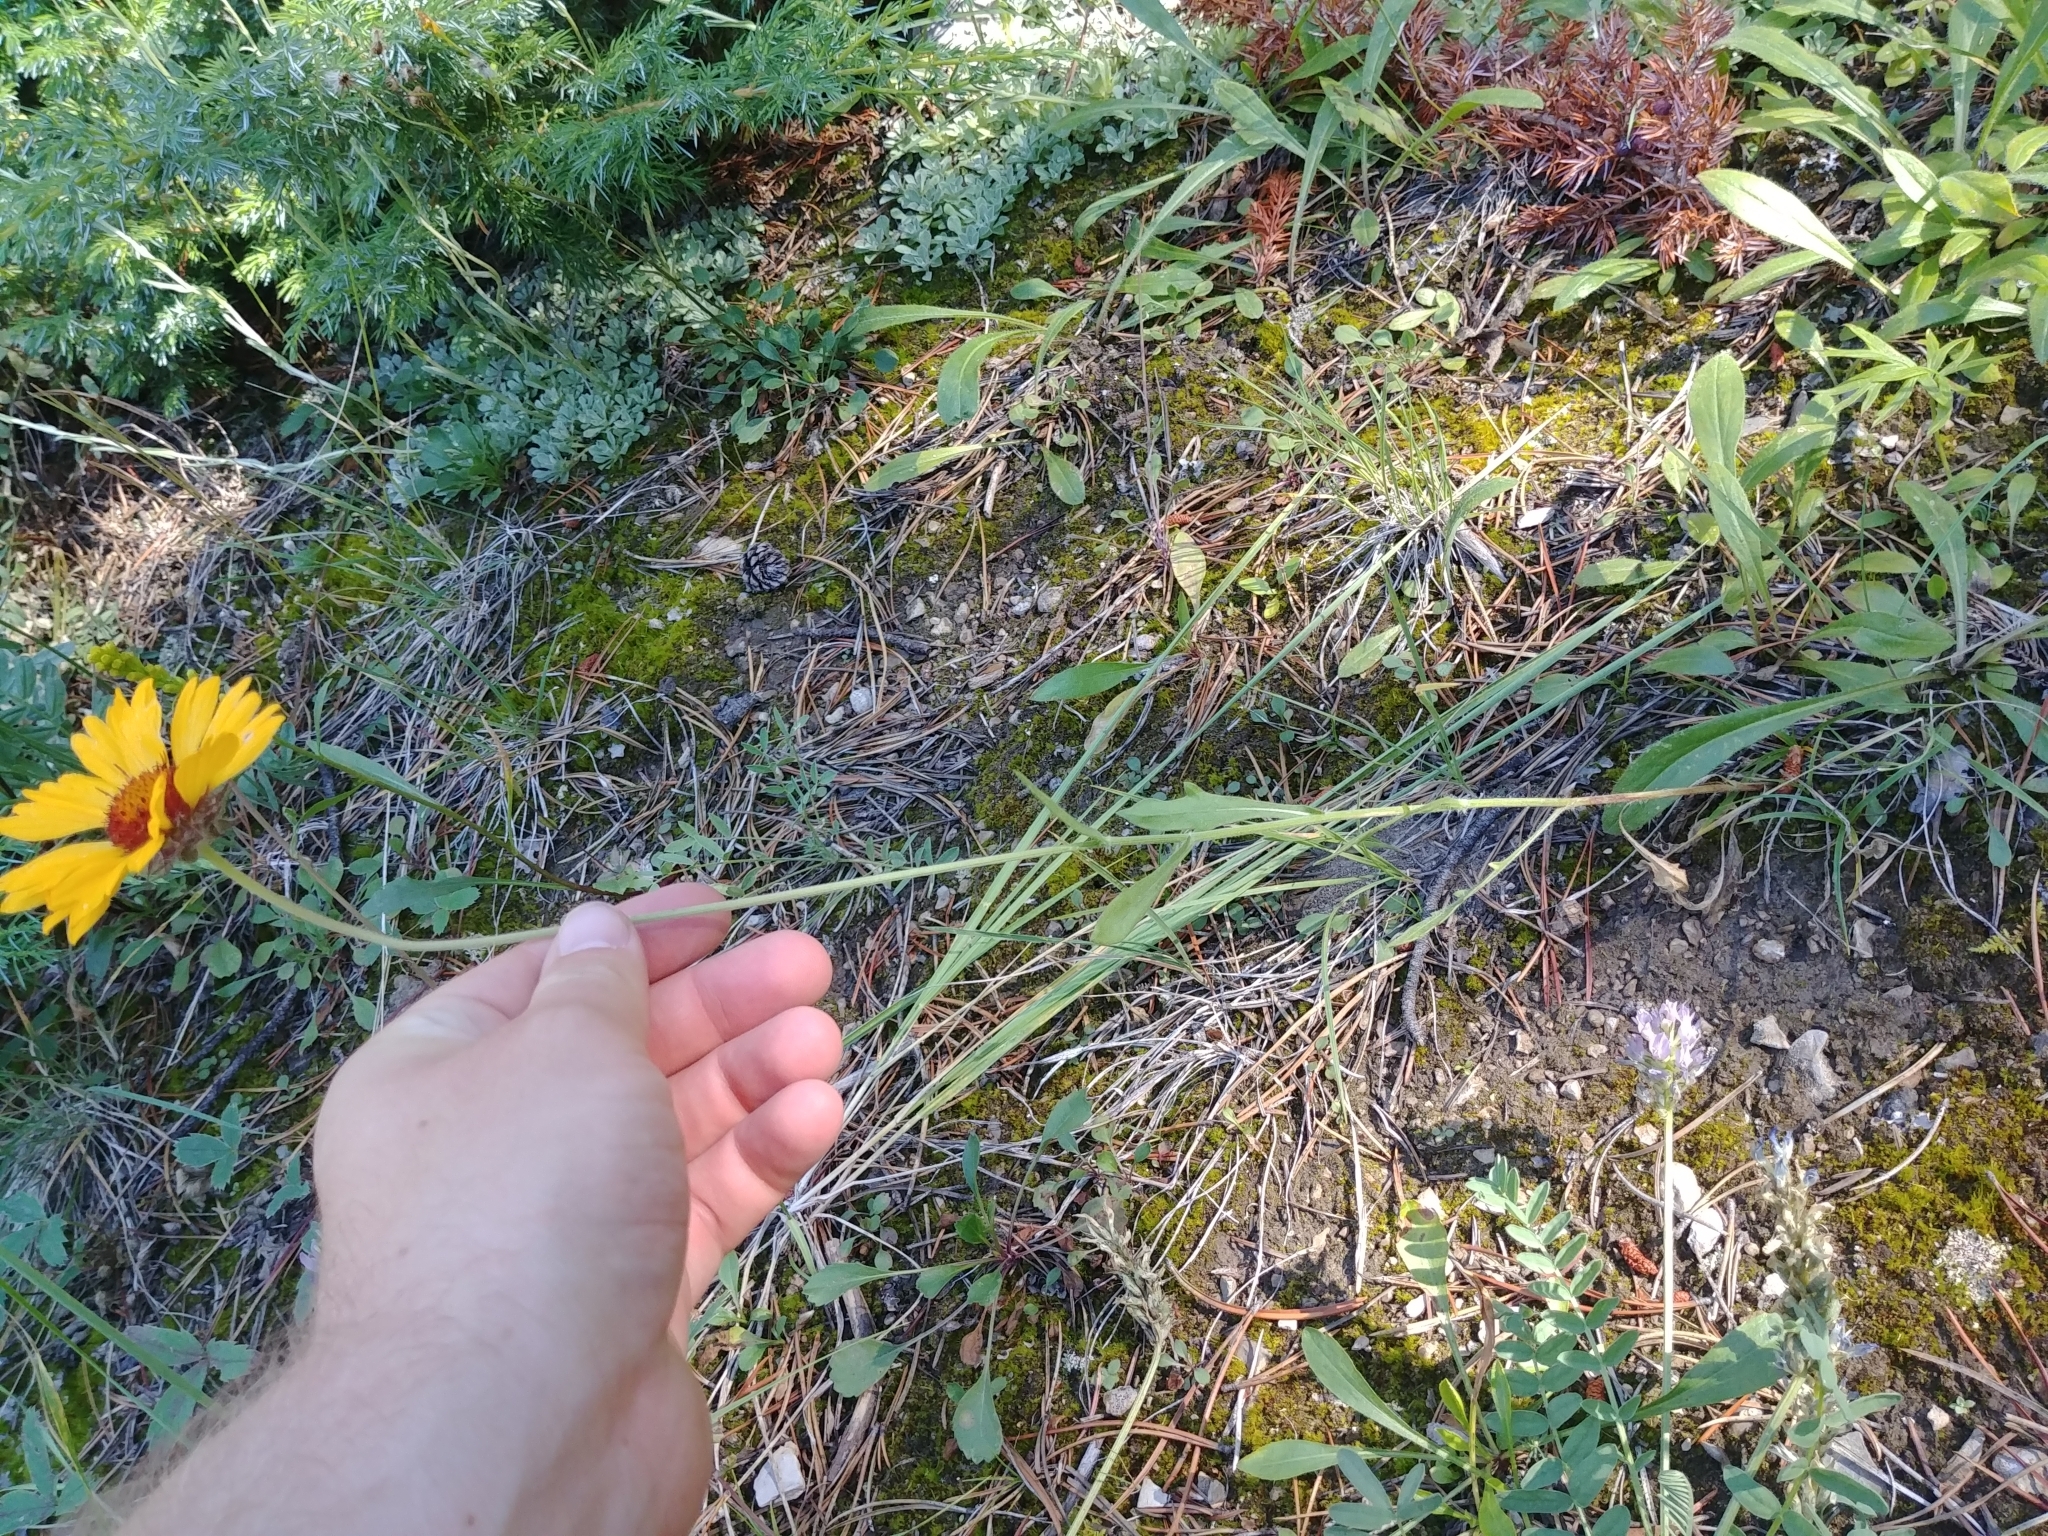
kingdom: Plantae
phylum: Tracheophyta
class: Magnoliopsida
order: Asterales
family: Asteraceae
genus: Gaillardia
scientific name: Gaillardia aristata
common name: Blanket-flower
